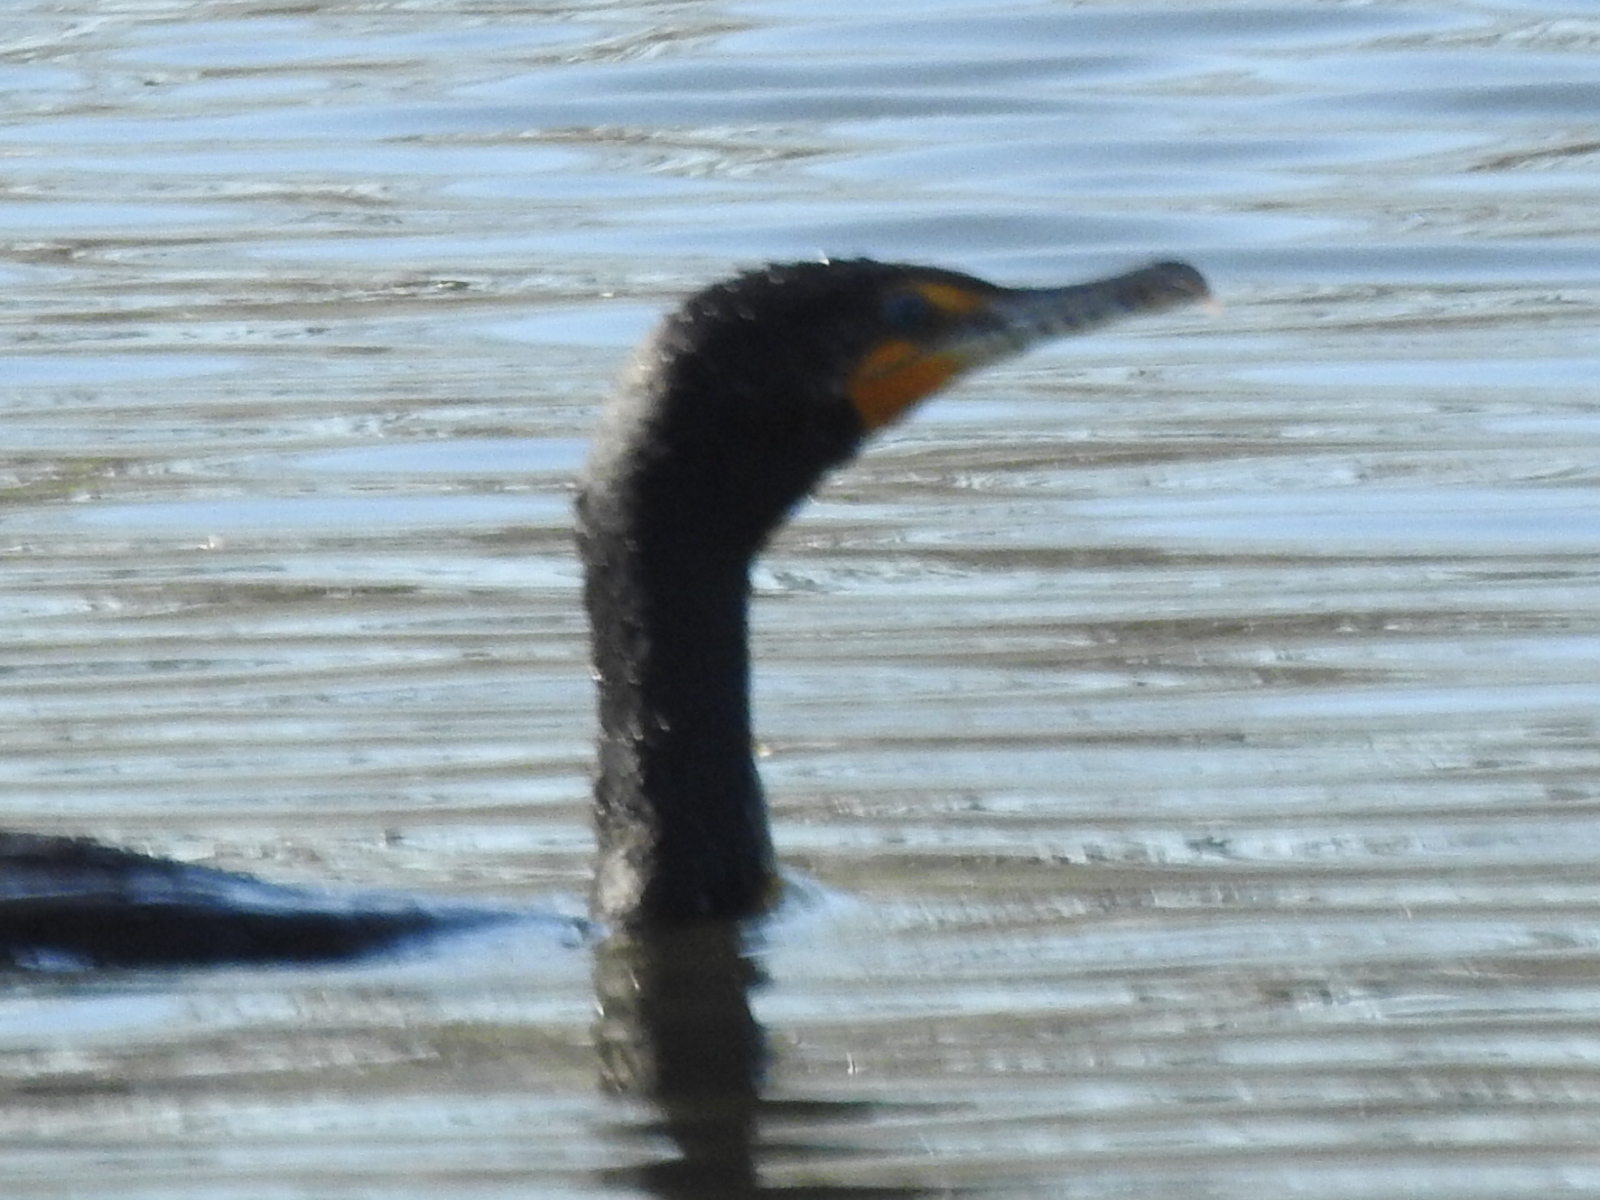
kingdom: Animalia
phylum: Chordata
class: Aves
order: Suliformes
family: Phalacrocoracidae
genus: Phalacrocorax
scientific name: Phalacrocorax auritus
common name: Double-crested cormorant
